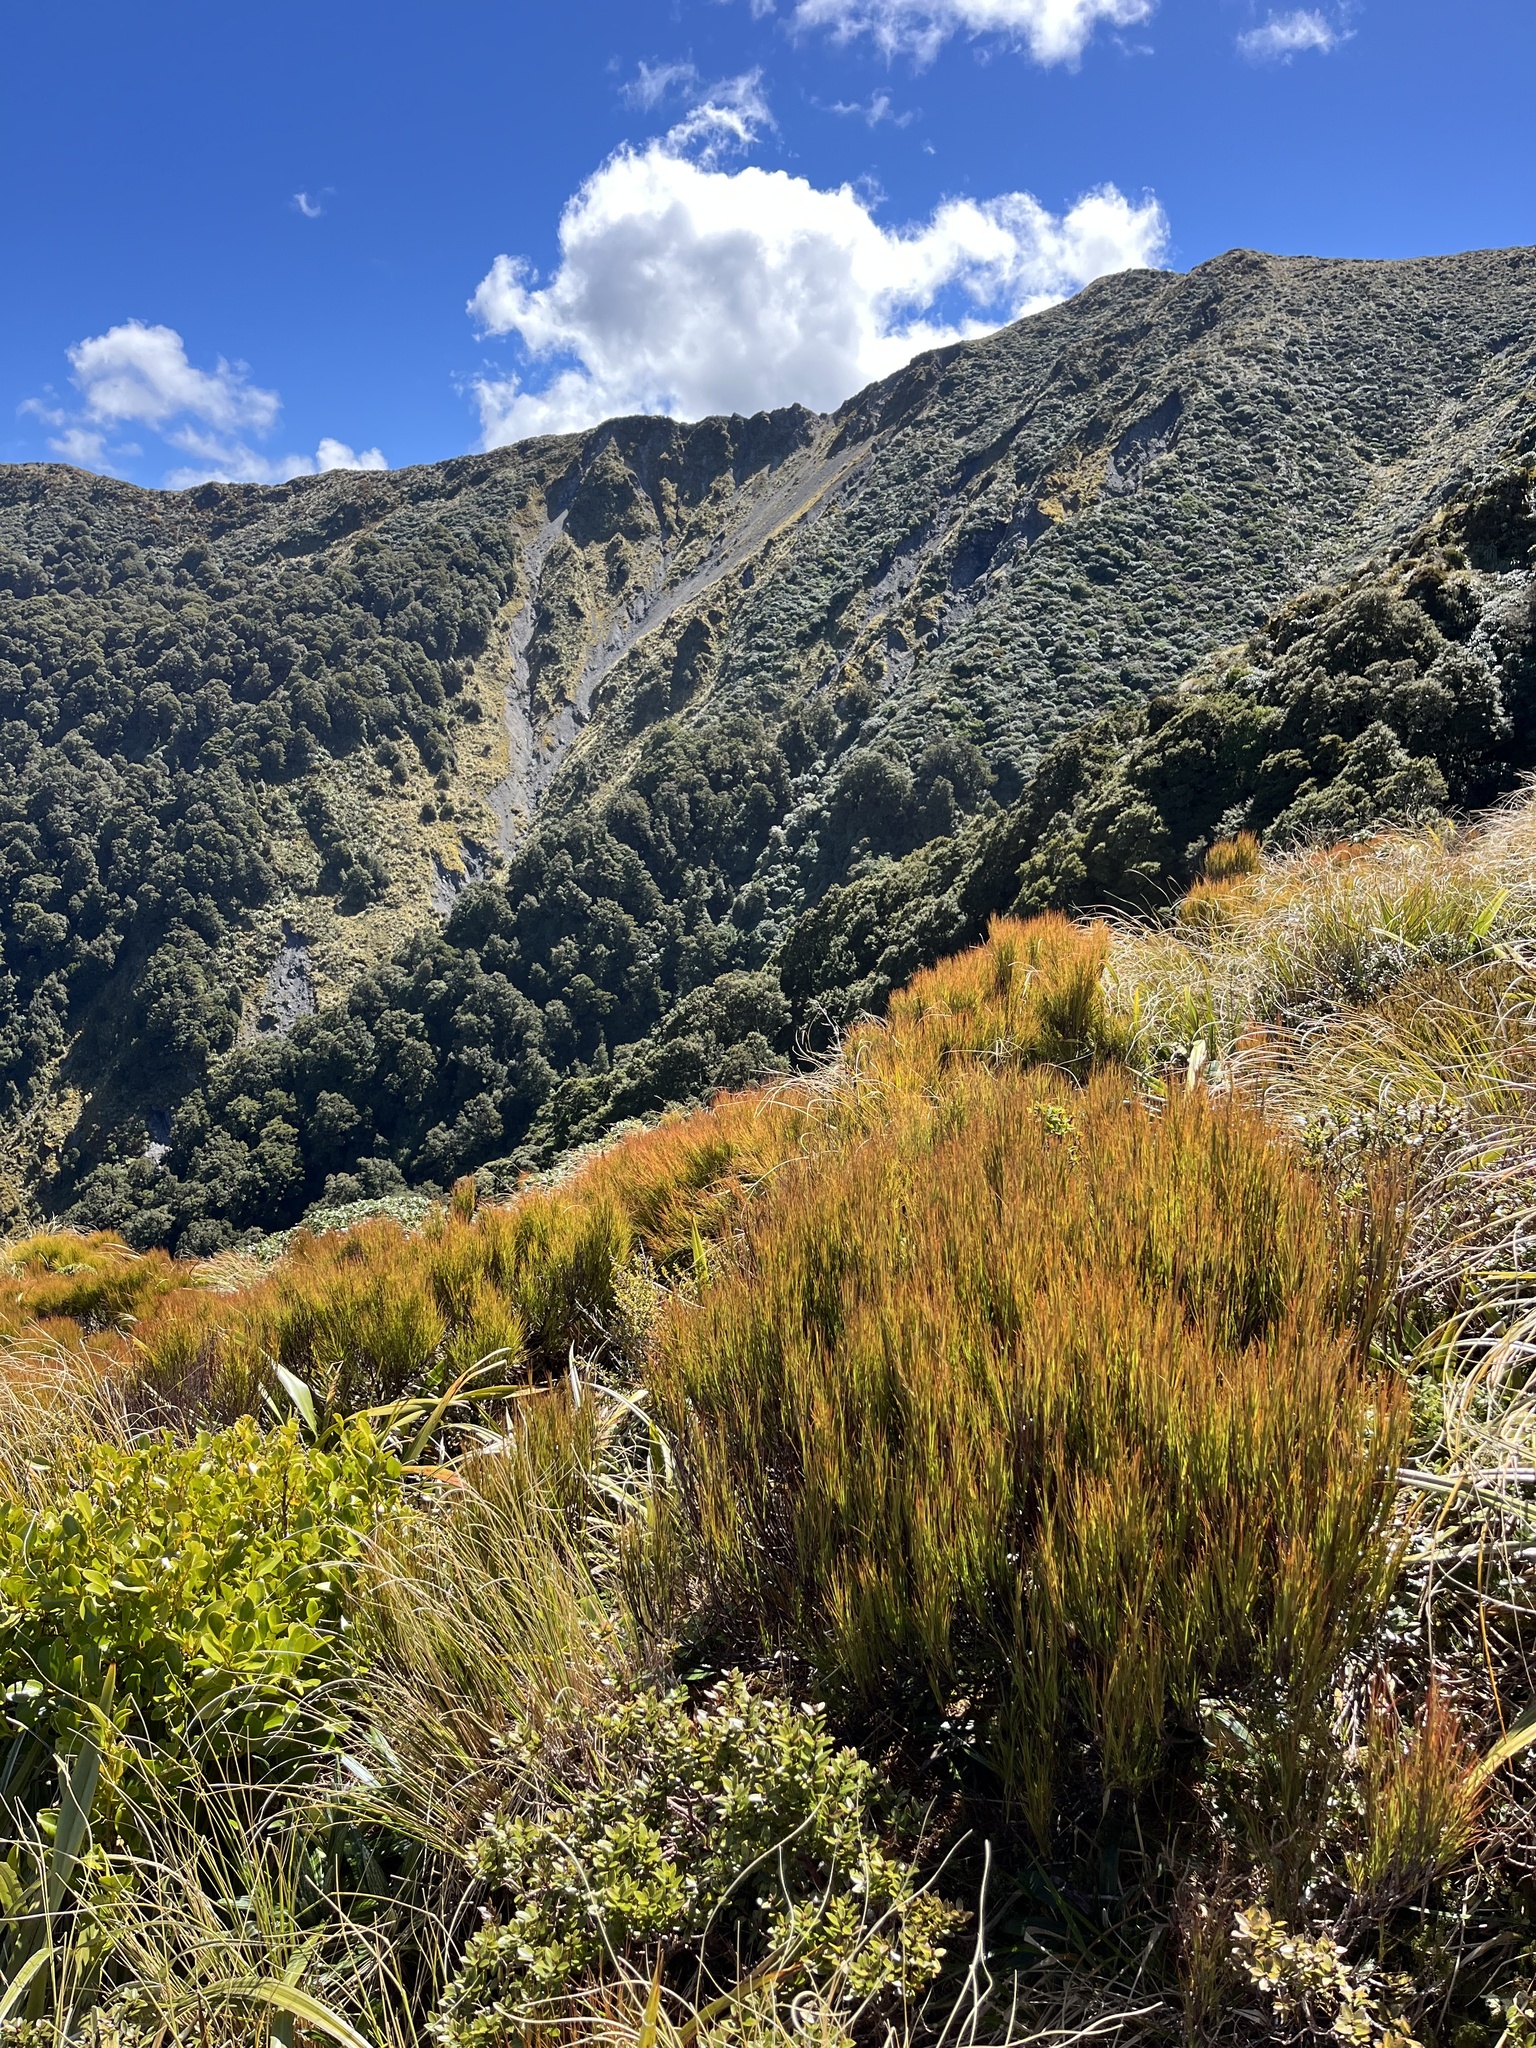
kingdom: Plantae
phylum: Tracheophyta
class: Magnoliopsida
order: Ericales
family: Ericaceae
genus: Dracophyllum
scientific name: Dracophyllum filifolium
